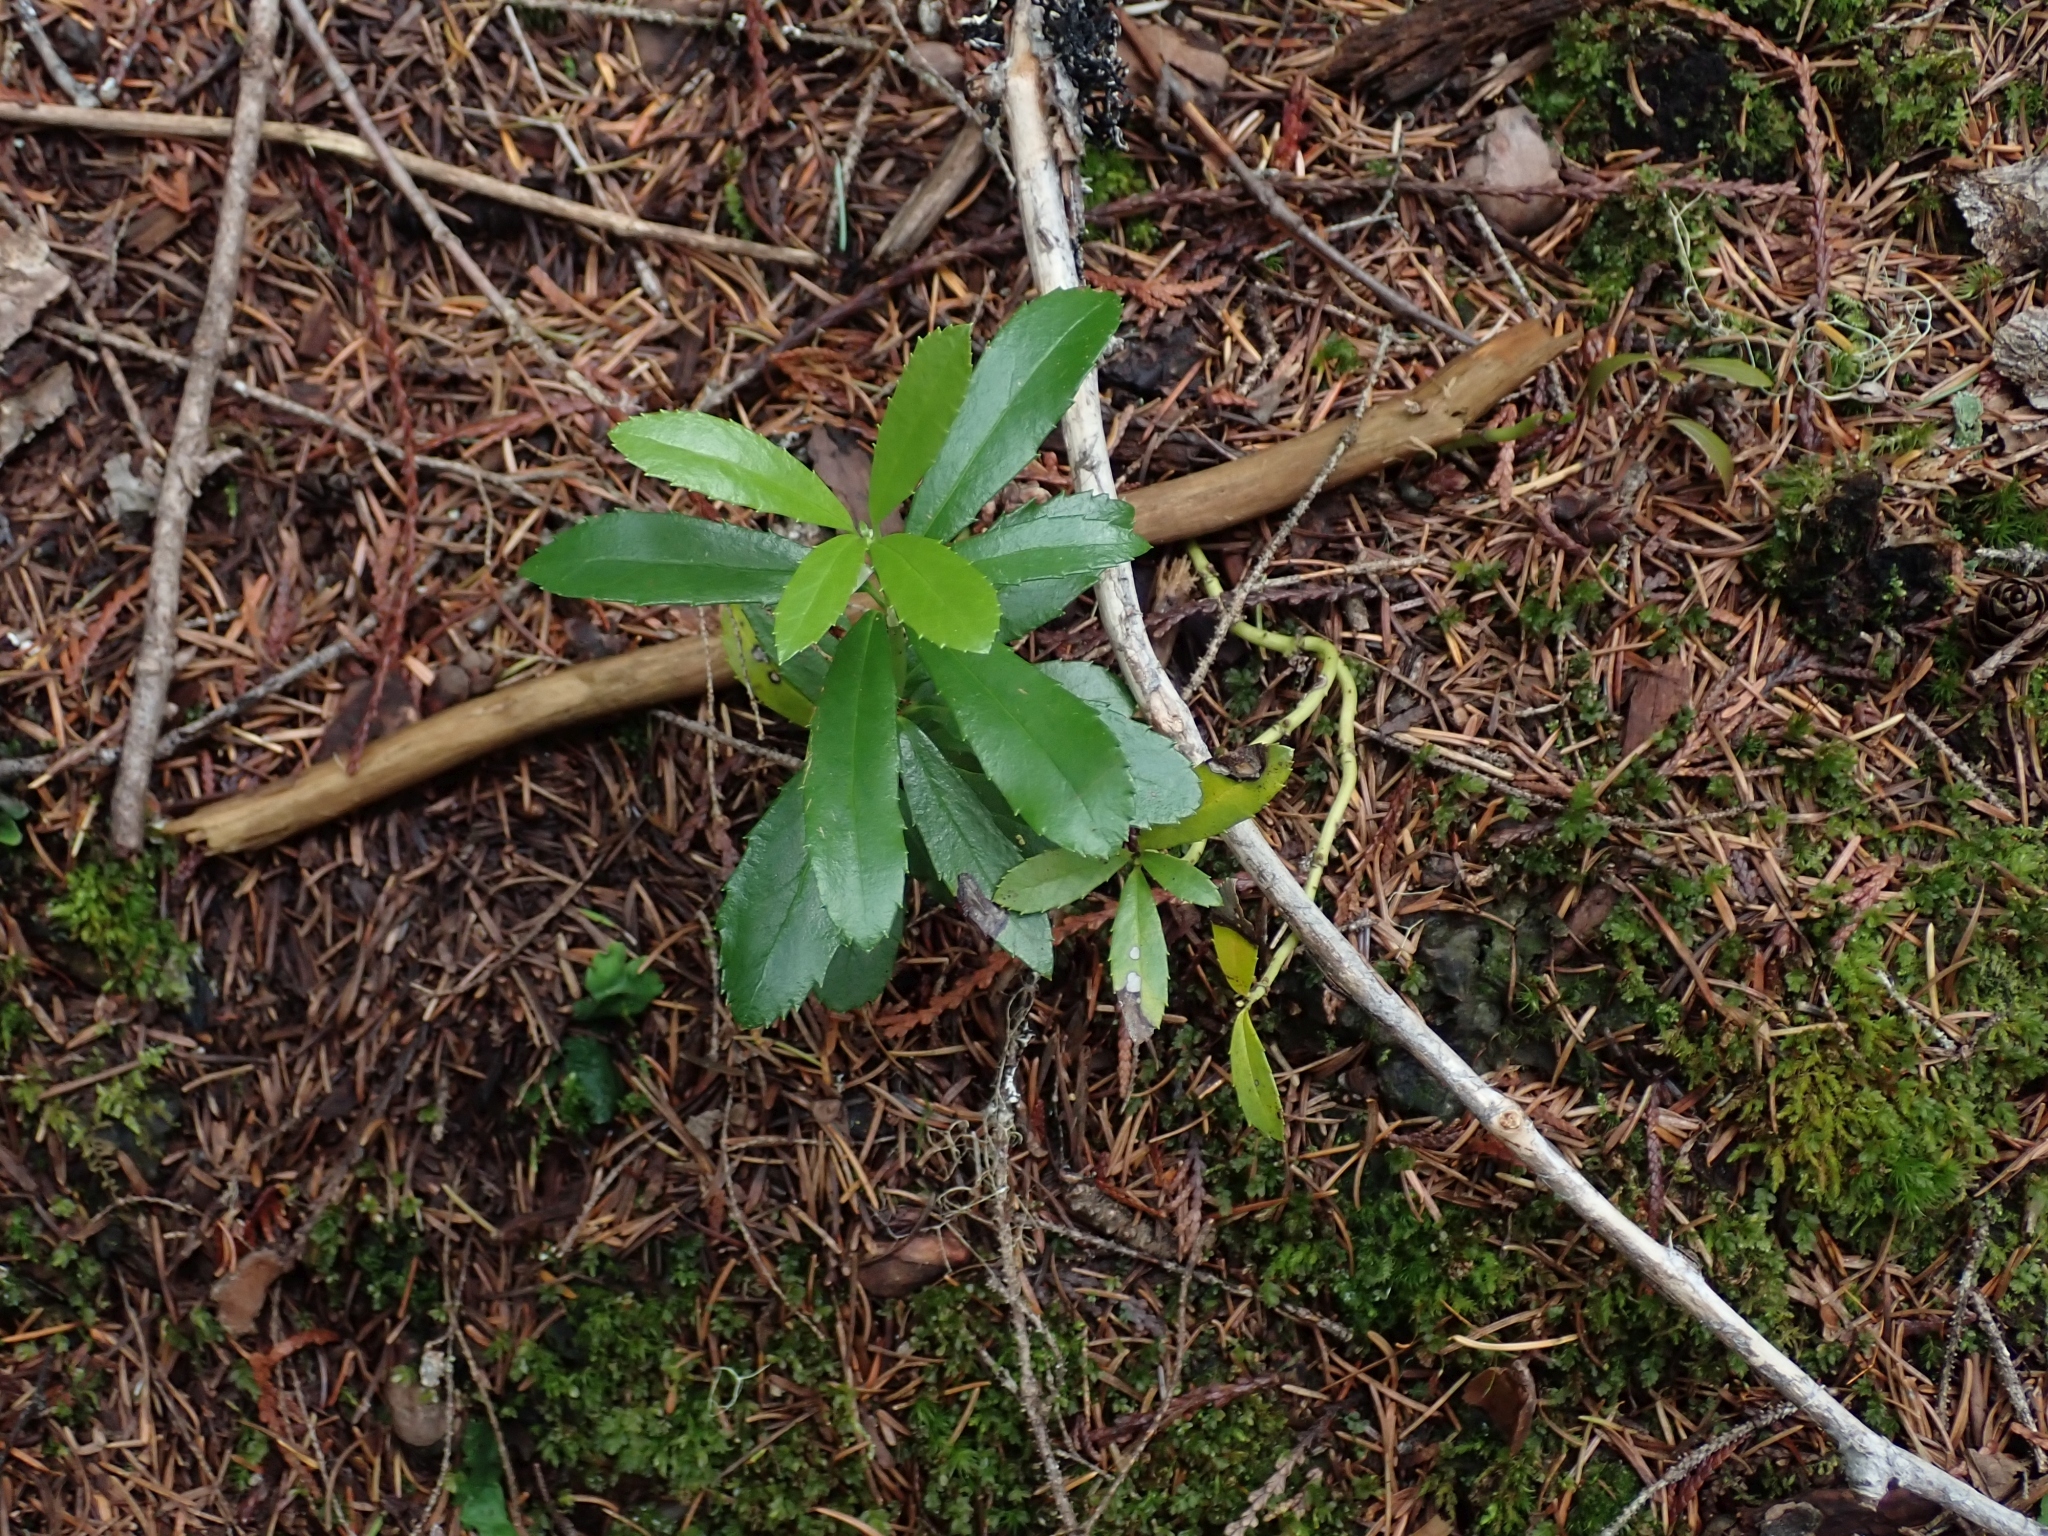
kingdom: Plantae
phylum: Tracheophyta
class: Magnoliopsida
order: Ericales
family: Ericaceae
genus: Chimaphila
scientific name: Chimaphila umbellata
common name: Pipsissewa
